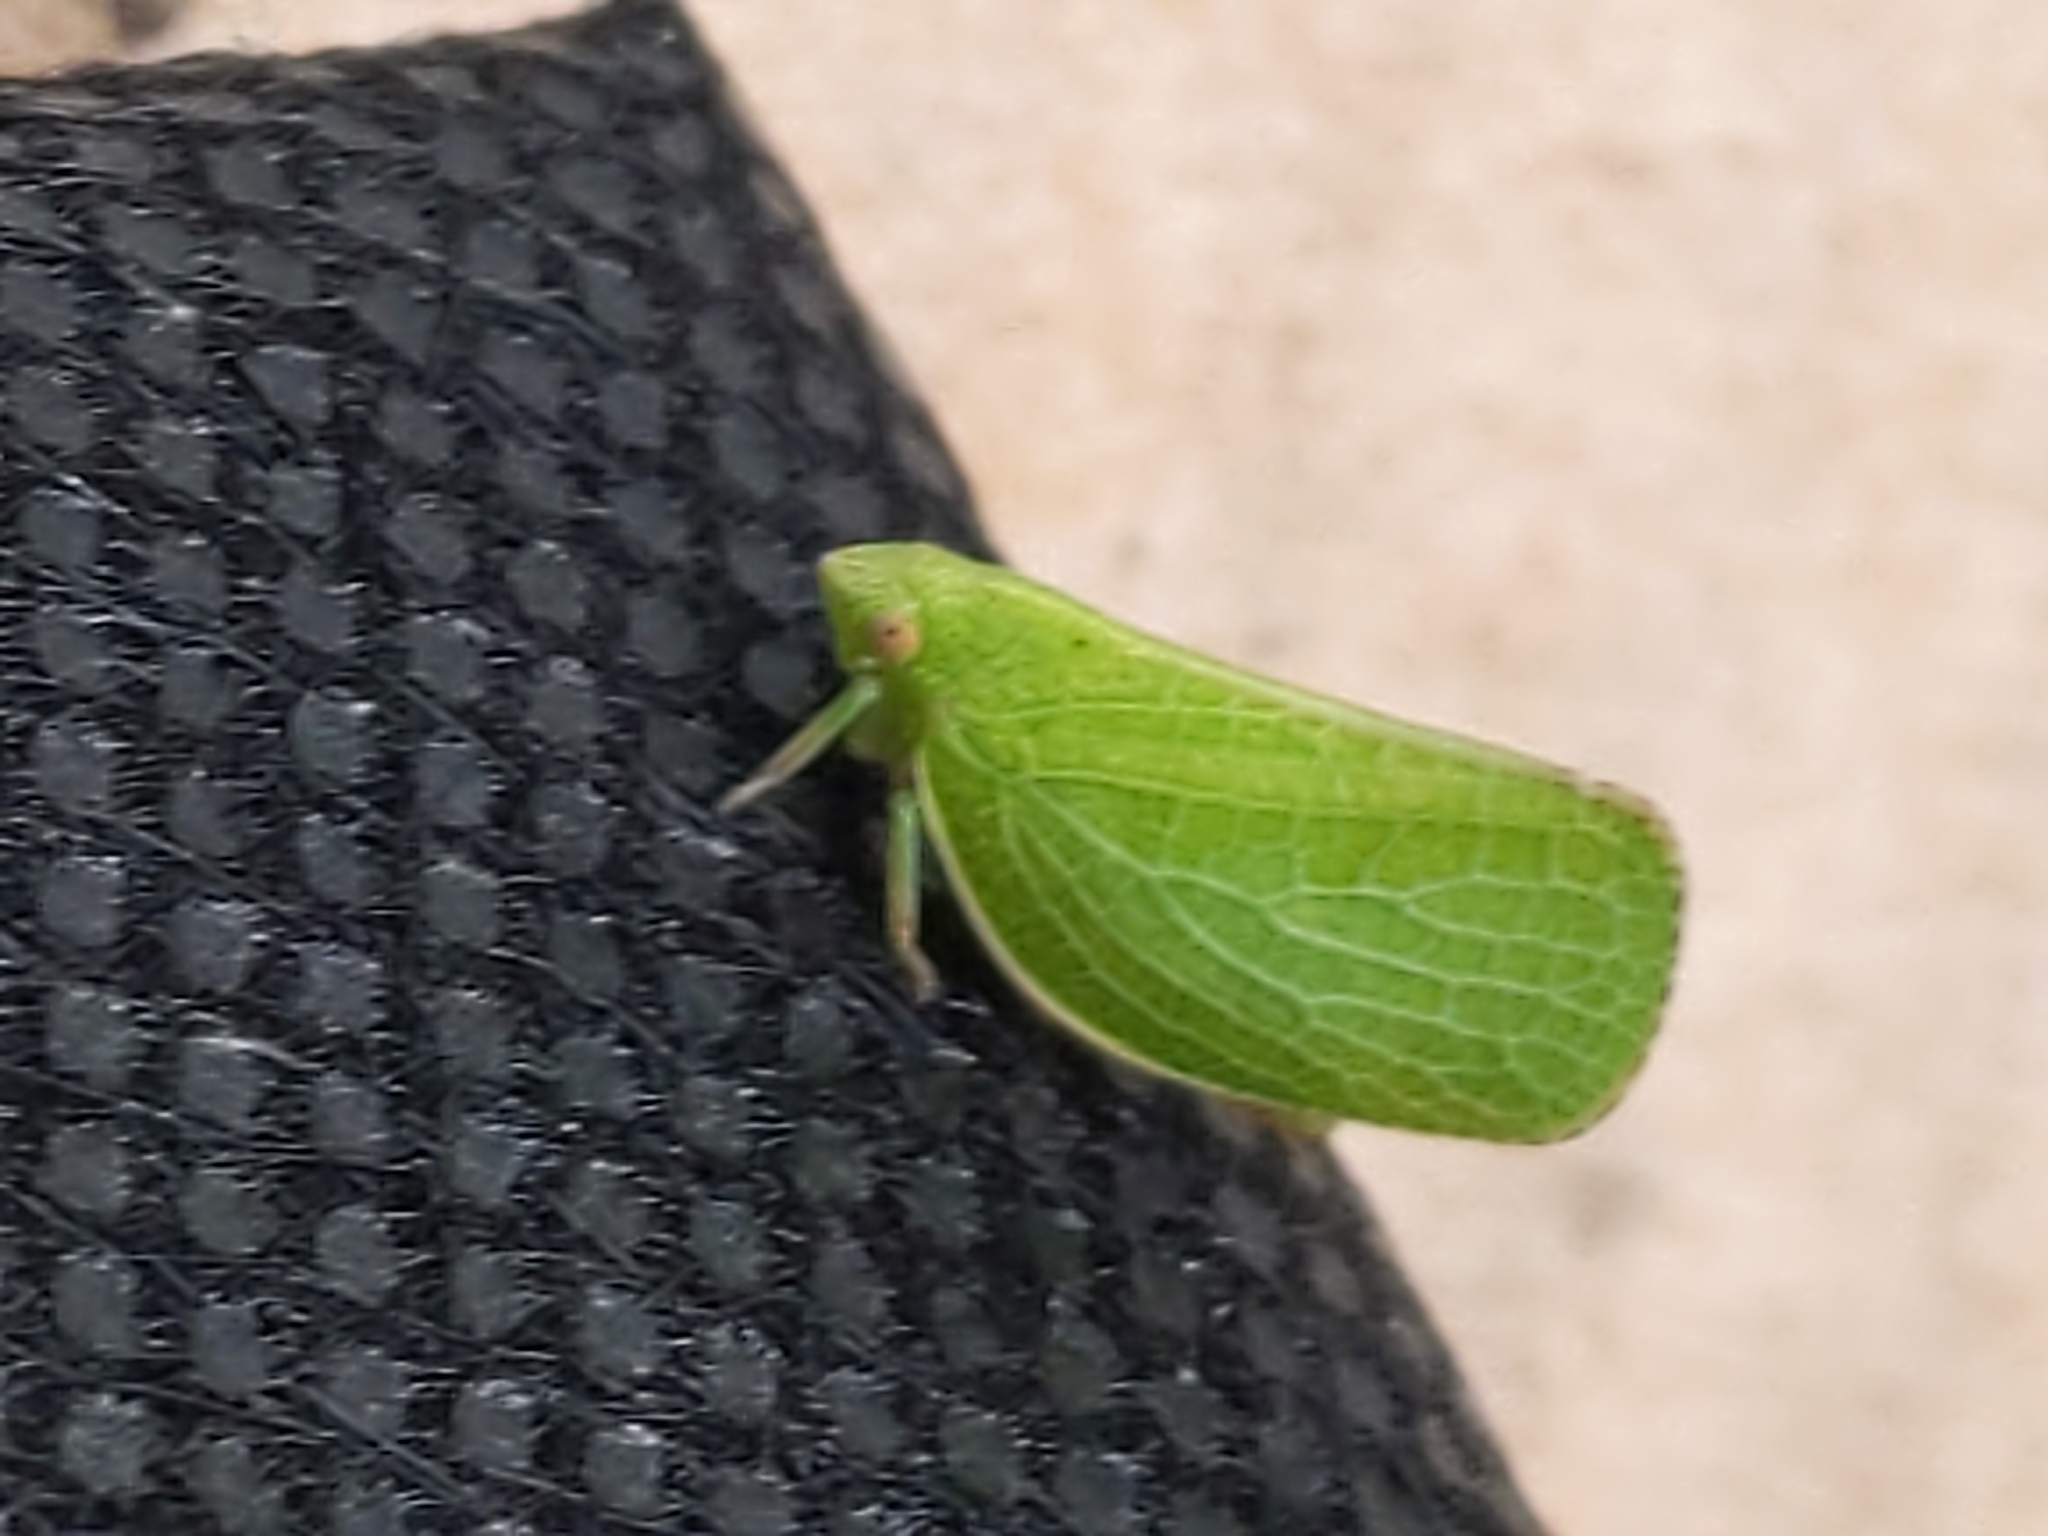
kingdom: Animalia
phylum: Arthropoda
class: Insecta
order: Hemiptera
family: Acanaloniidae
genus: Acanalonia
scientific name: Acanalonia conica
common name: Green cone-headed planthopper
